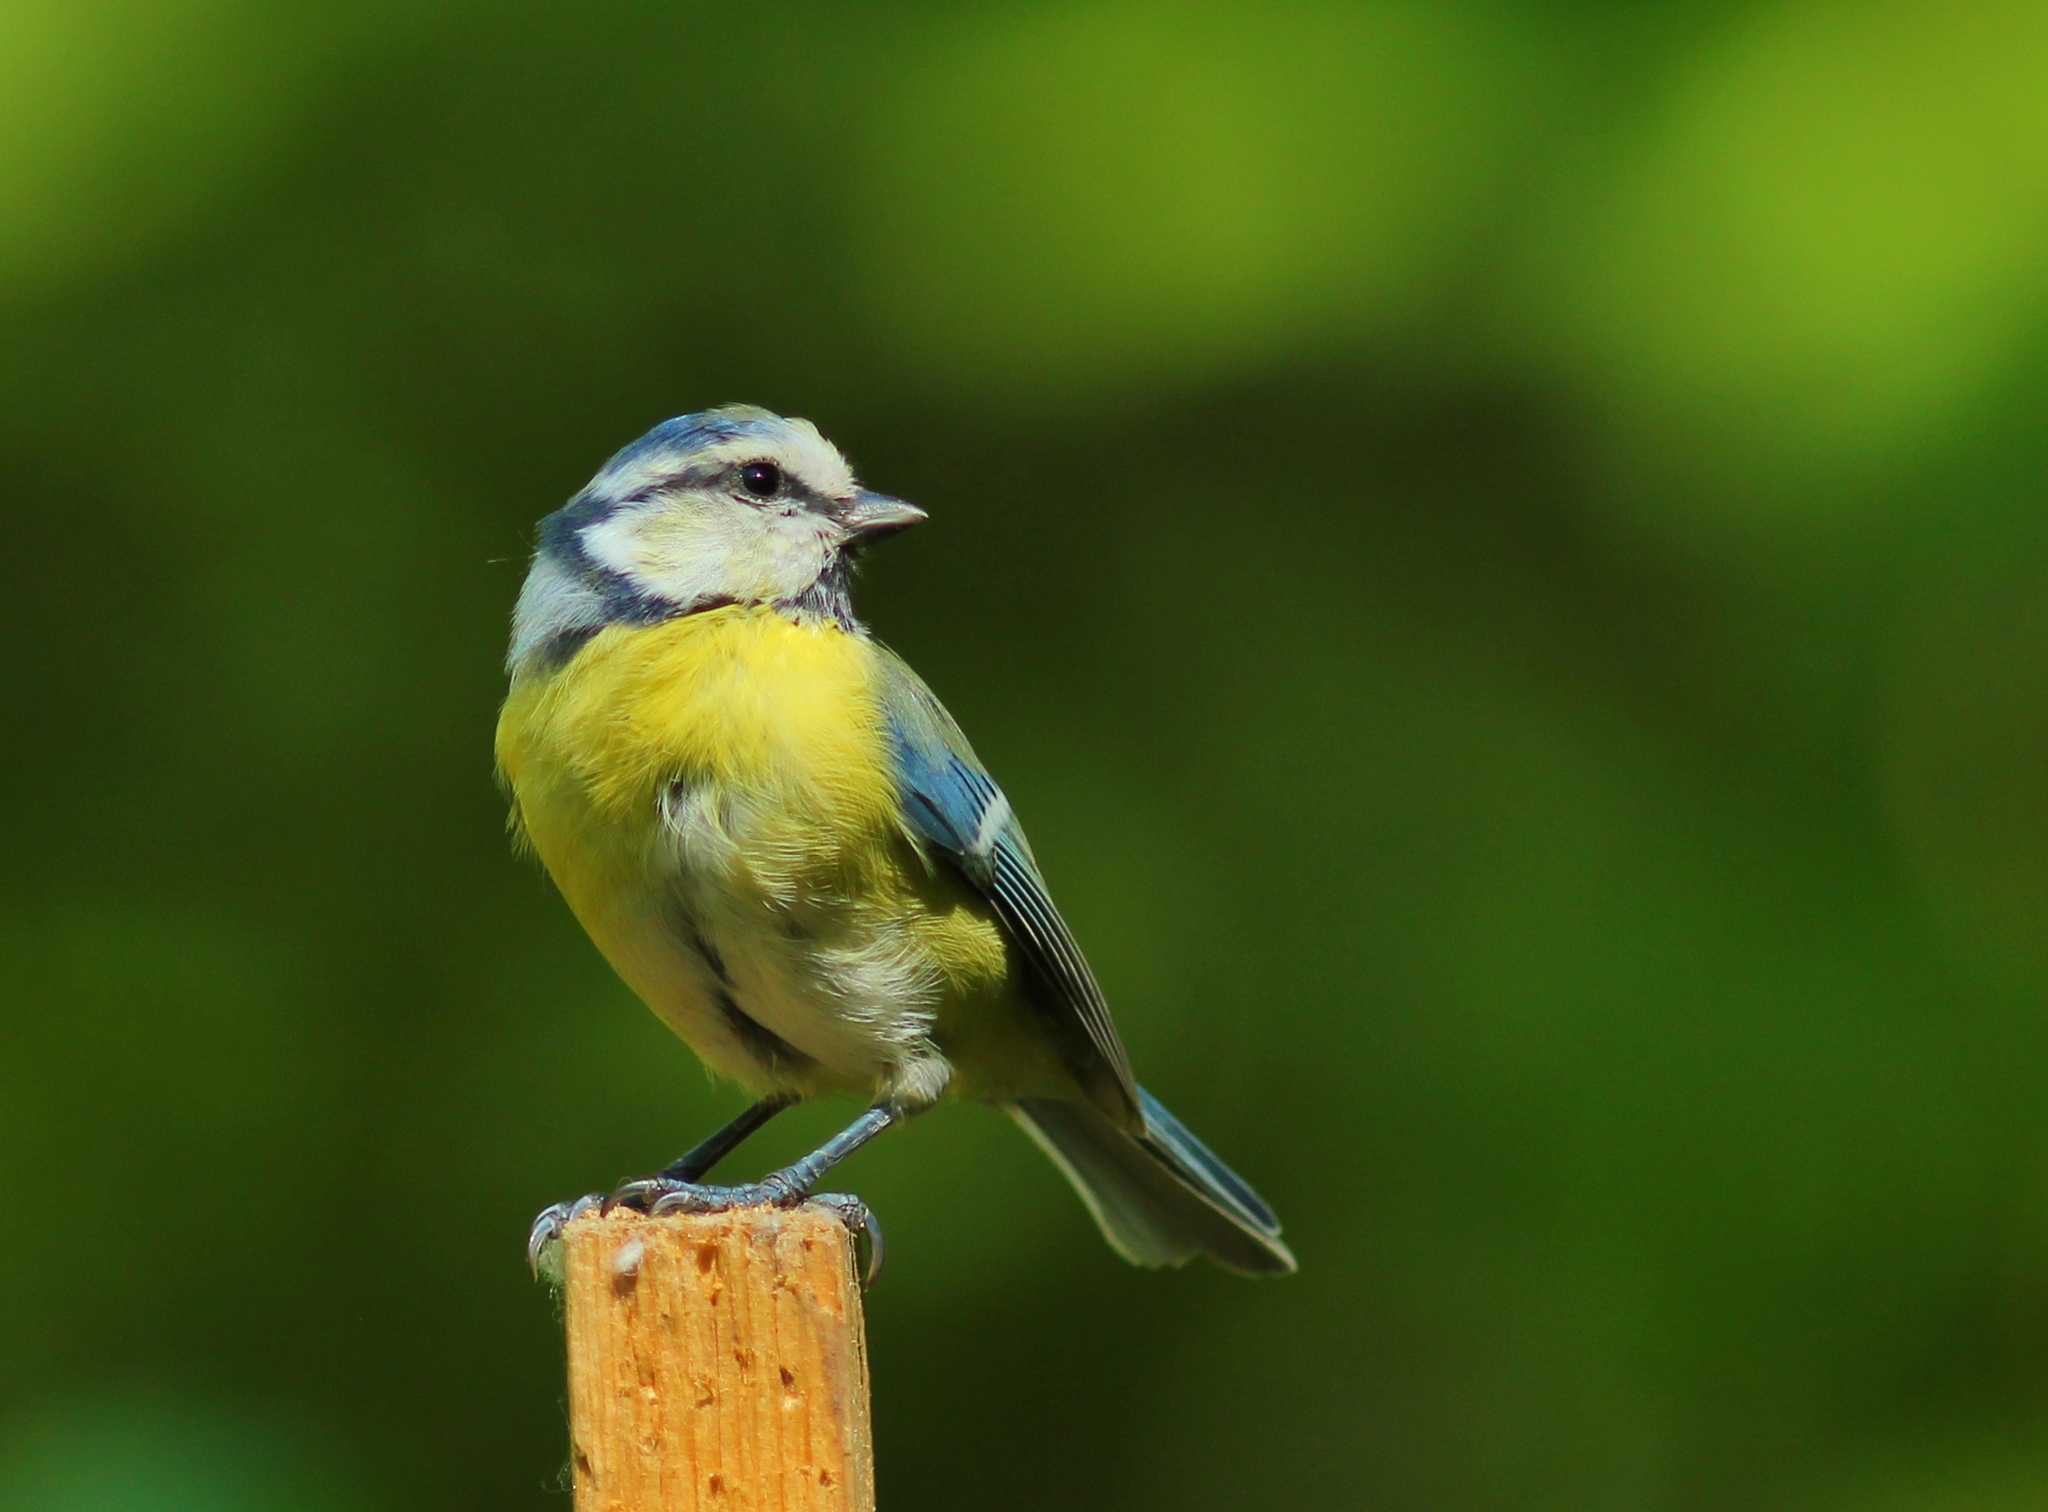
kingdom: Animalia
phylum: Chordata
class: Aves
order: Passeriformes
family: Paridae
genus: Cyanistes
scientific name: Cyanistes caeruleus
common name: Eurasian blue tit
